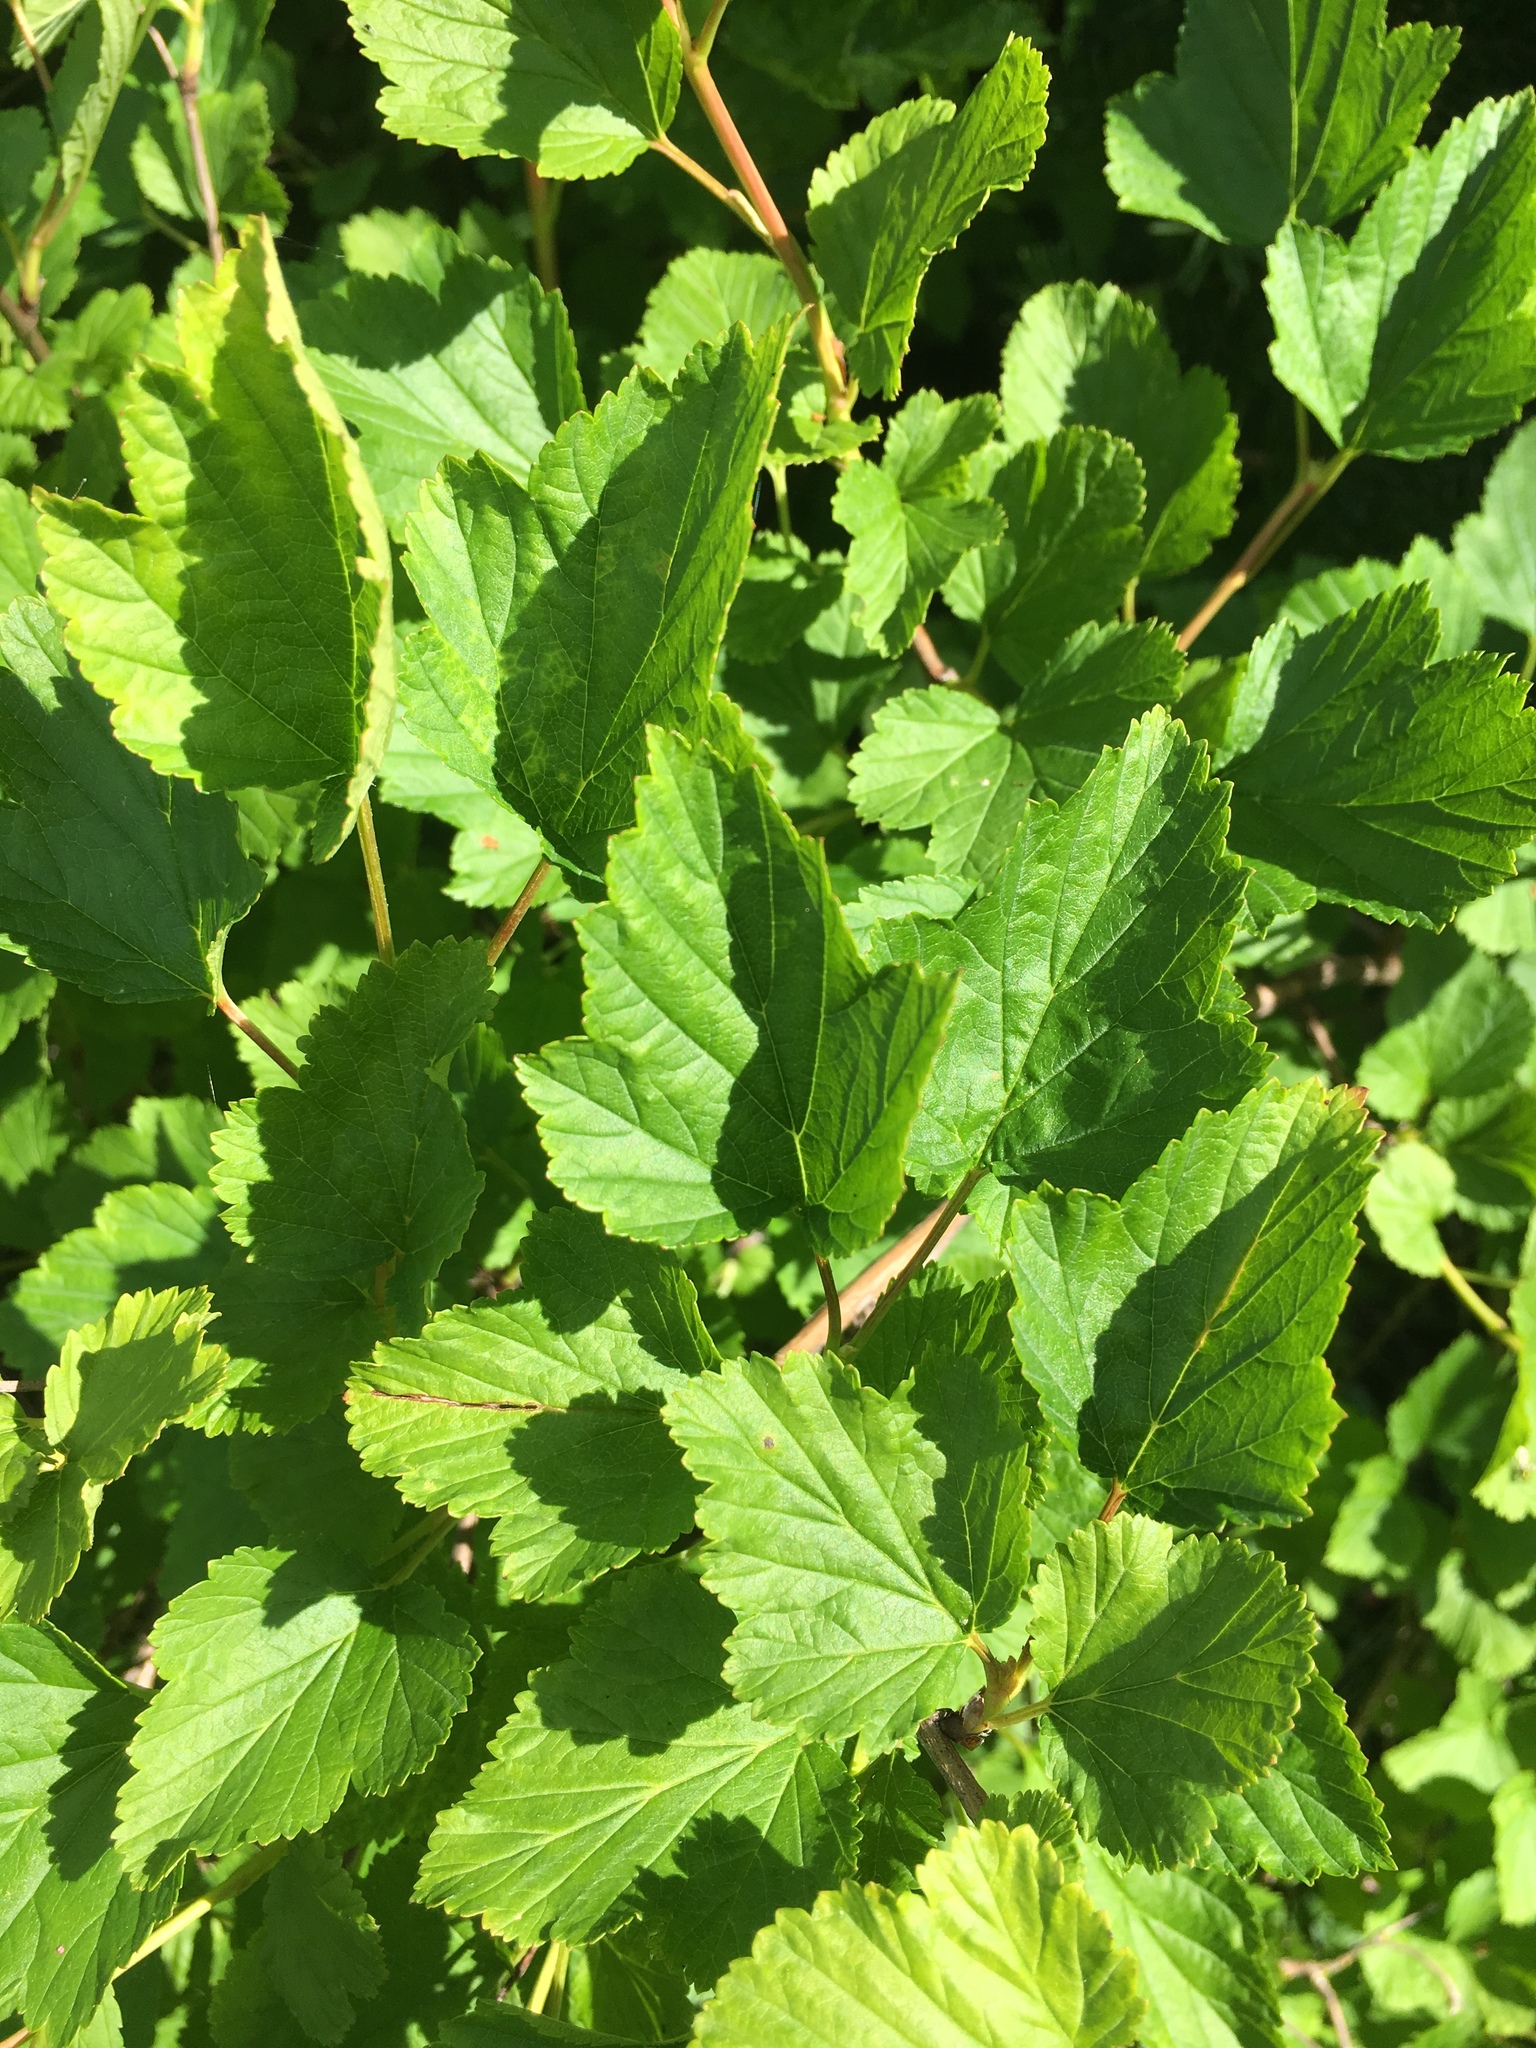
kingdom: Plantae
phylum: Tracheophyta
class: Magnoliopsida
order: Rosales
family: Rosaceae
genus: Physocarpus
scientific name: Physocarpus opulifolius
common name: Ninebark
